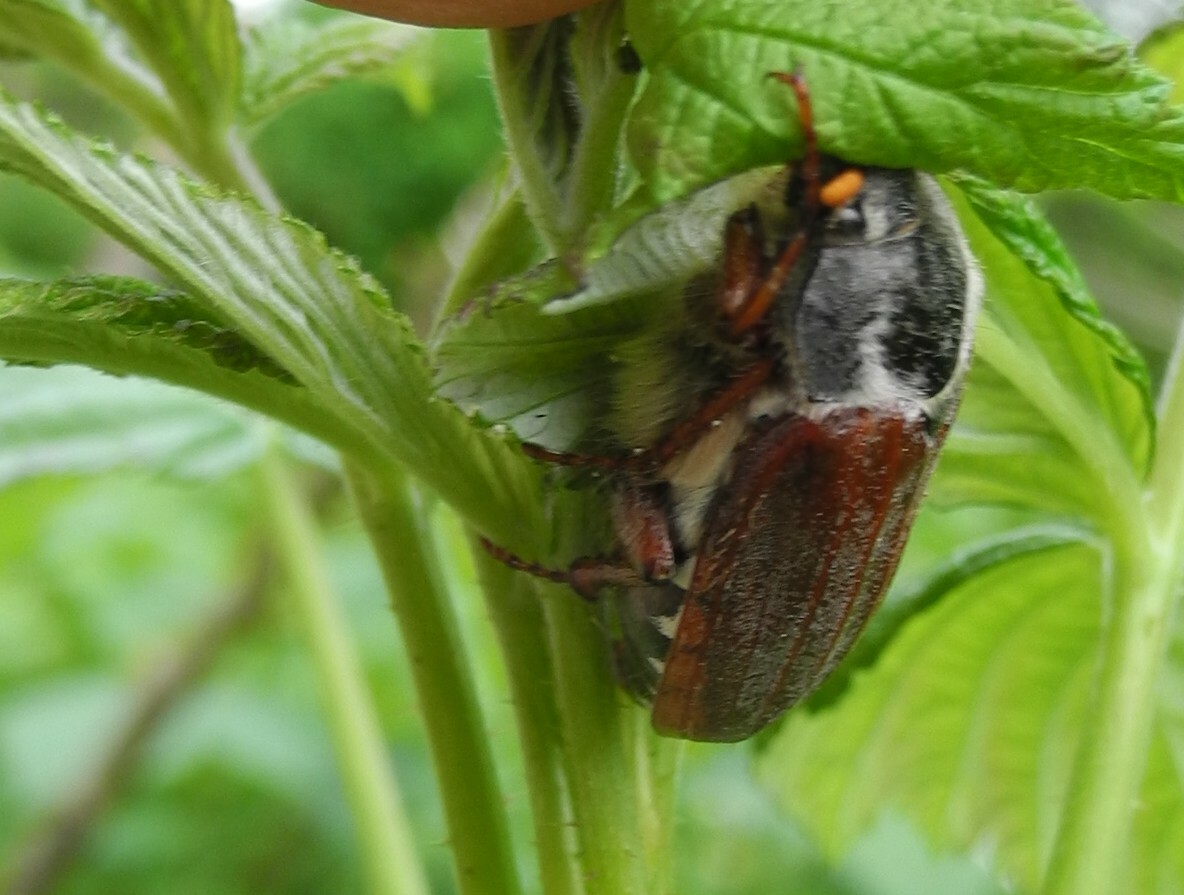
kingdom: Animalia
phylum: Arthropoda
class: Insecta
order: Coleoptera
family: Scarabaeidae
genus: Melolontha
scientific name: Melolontha melolontha
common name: Cockchafer maybeetle
